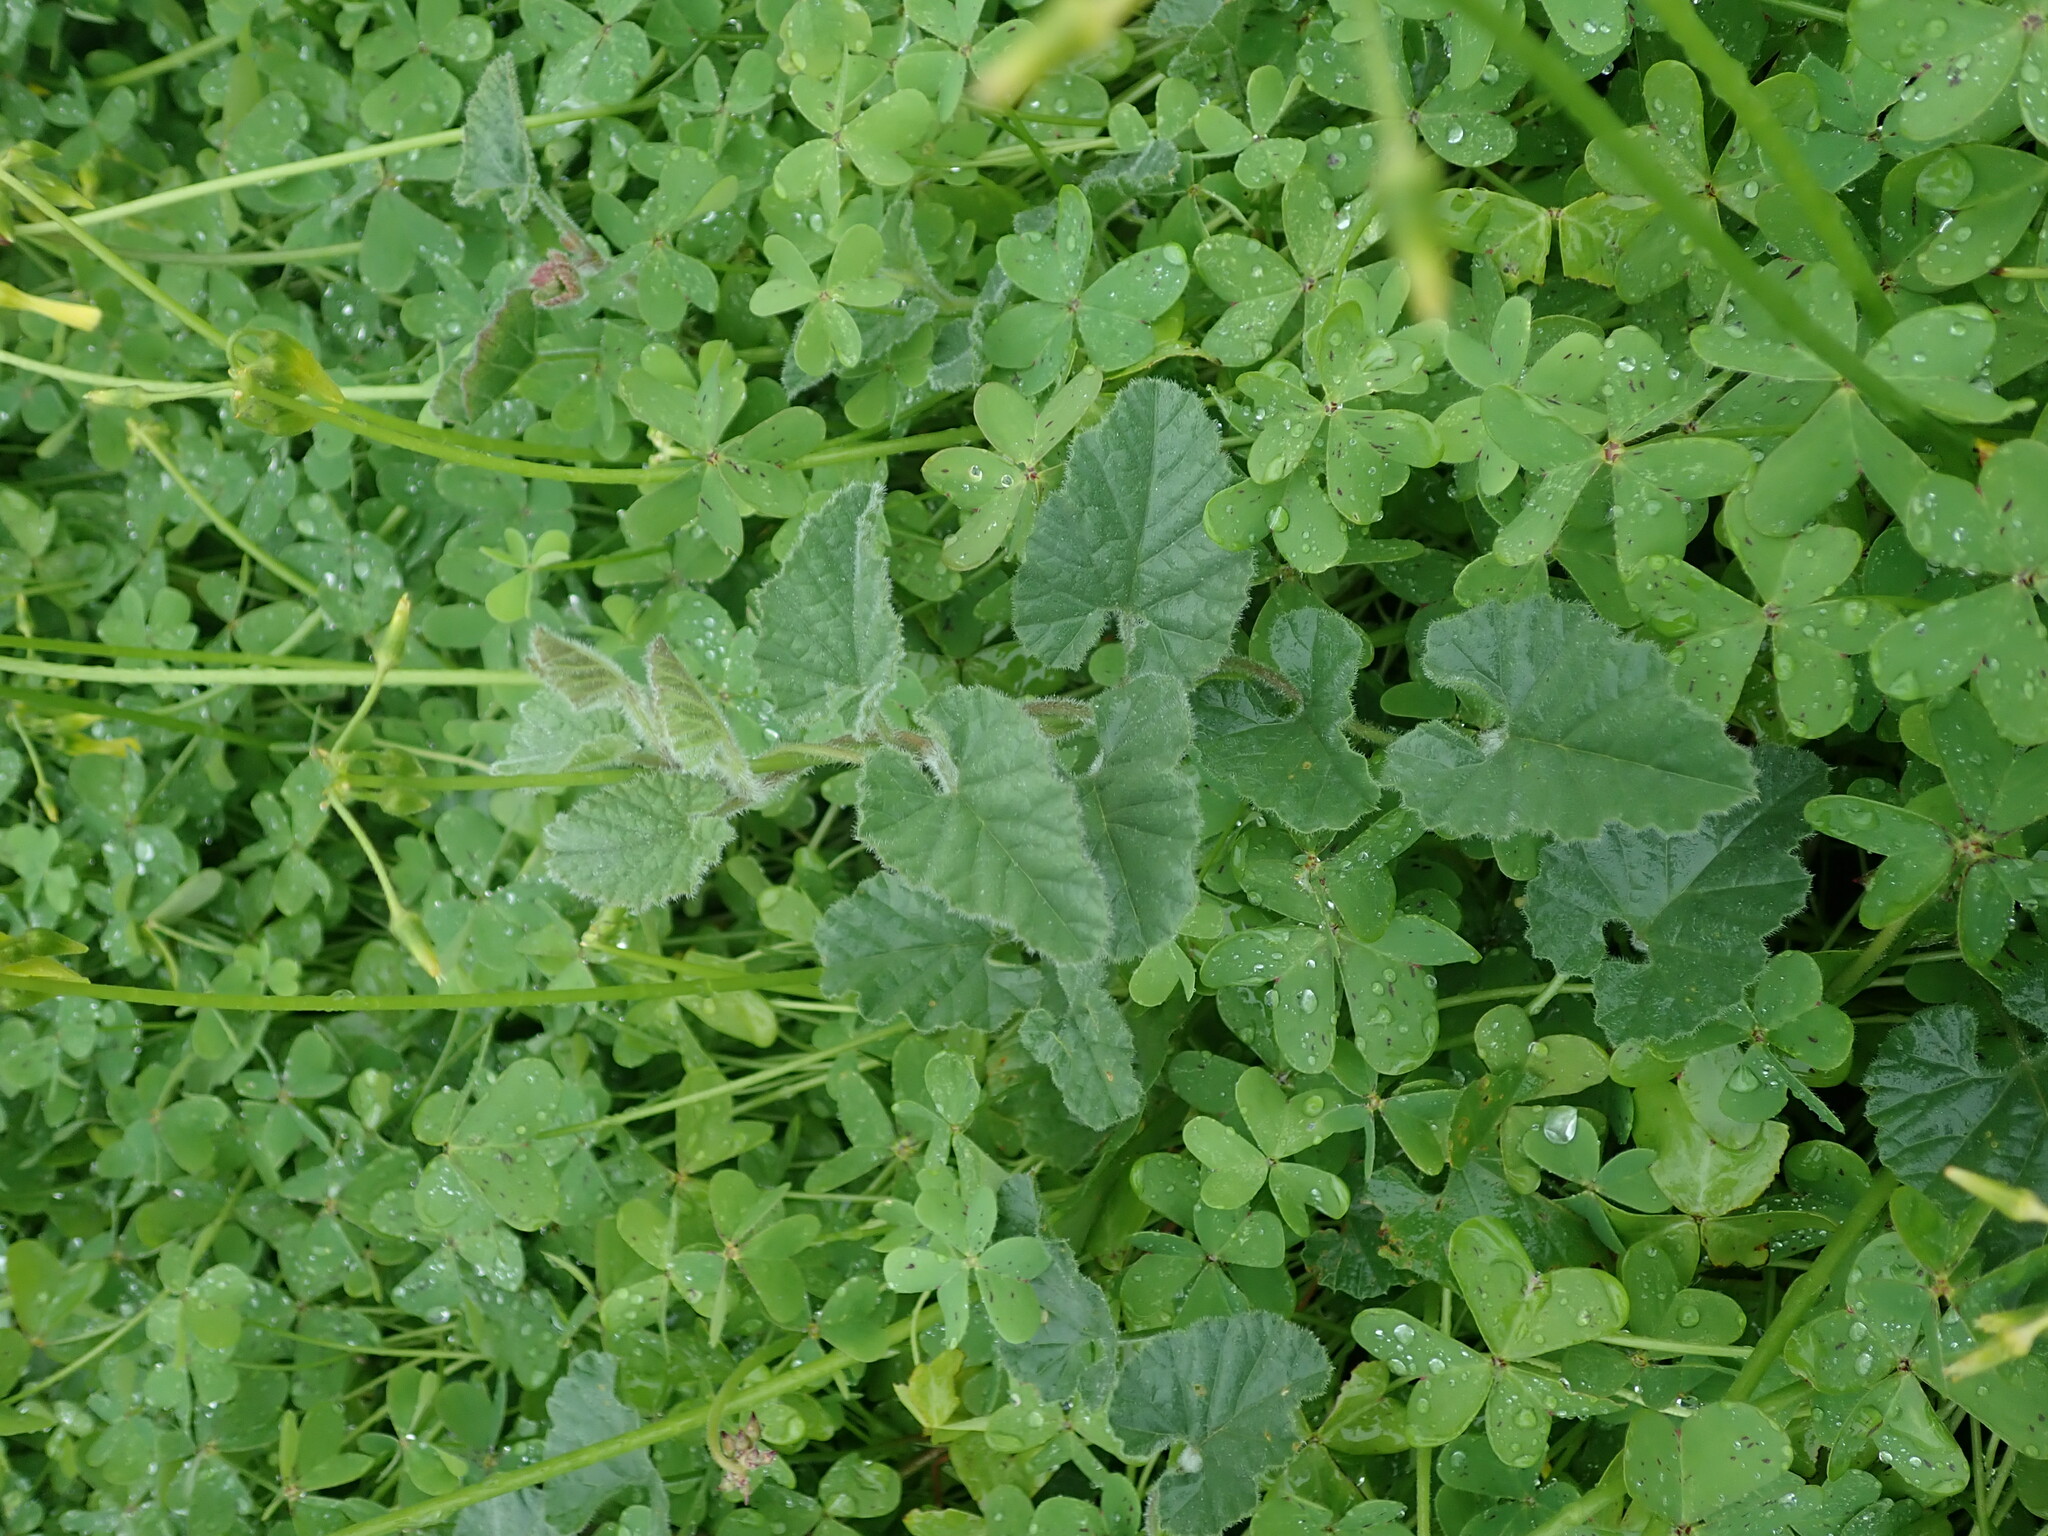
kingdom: Plantae
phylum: Tracheophyta
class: Magnoliopsida
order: Solanales
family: Convolvulaceae
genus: Convolvulus
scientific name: Convolvulus althaeoides
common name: Mallow bindweed
